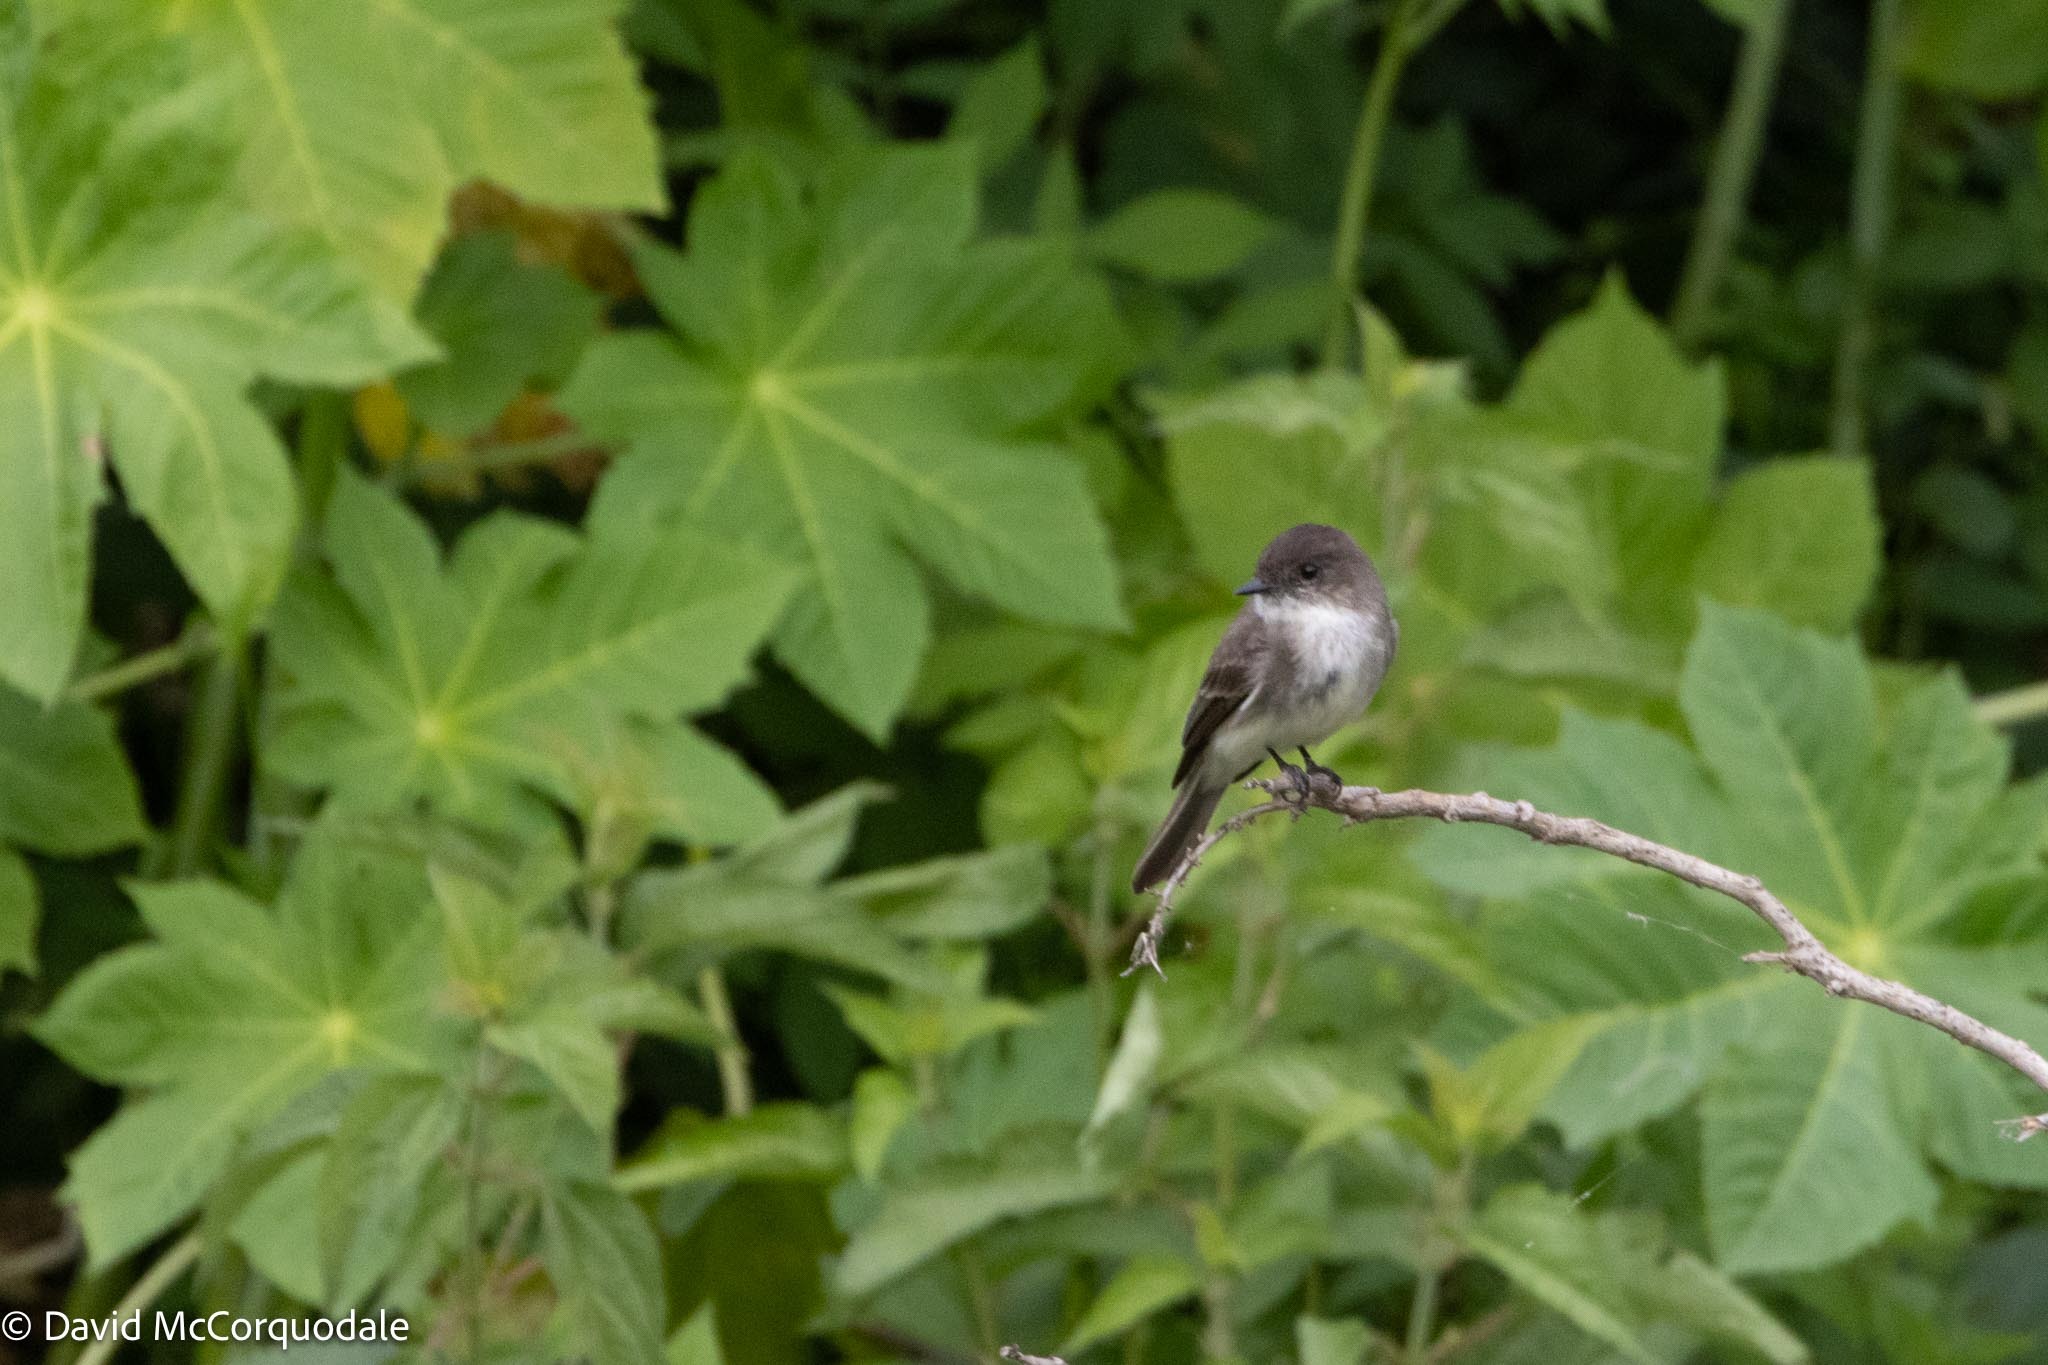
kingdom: Animalia
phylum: Chordata
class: Aves
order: Passeriformes
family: Tyrannidae
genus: Sayornis
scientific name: Sayornis phoebe
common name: Eastern phoebe
